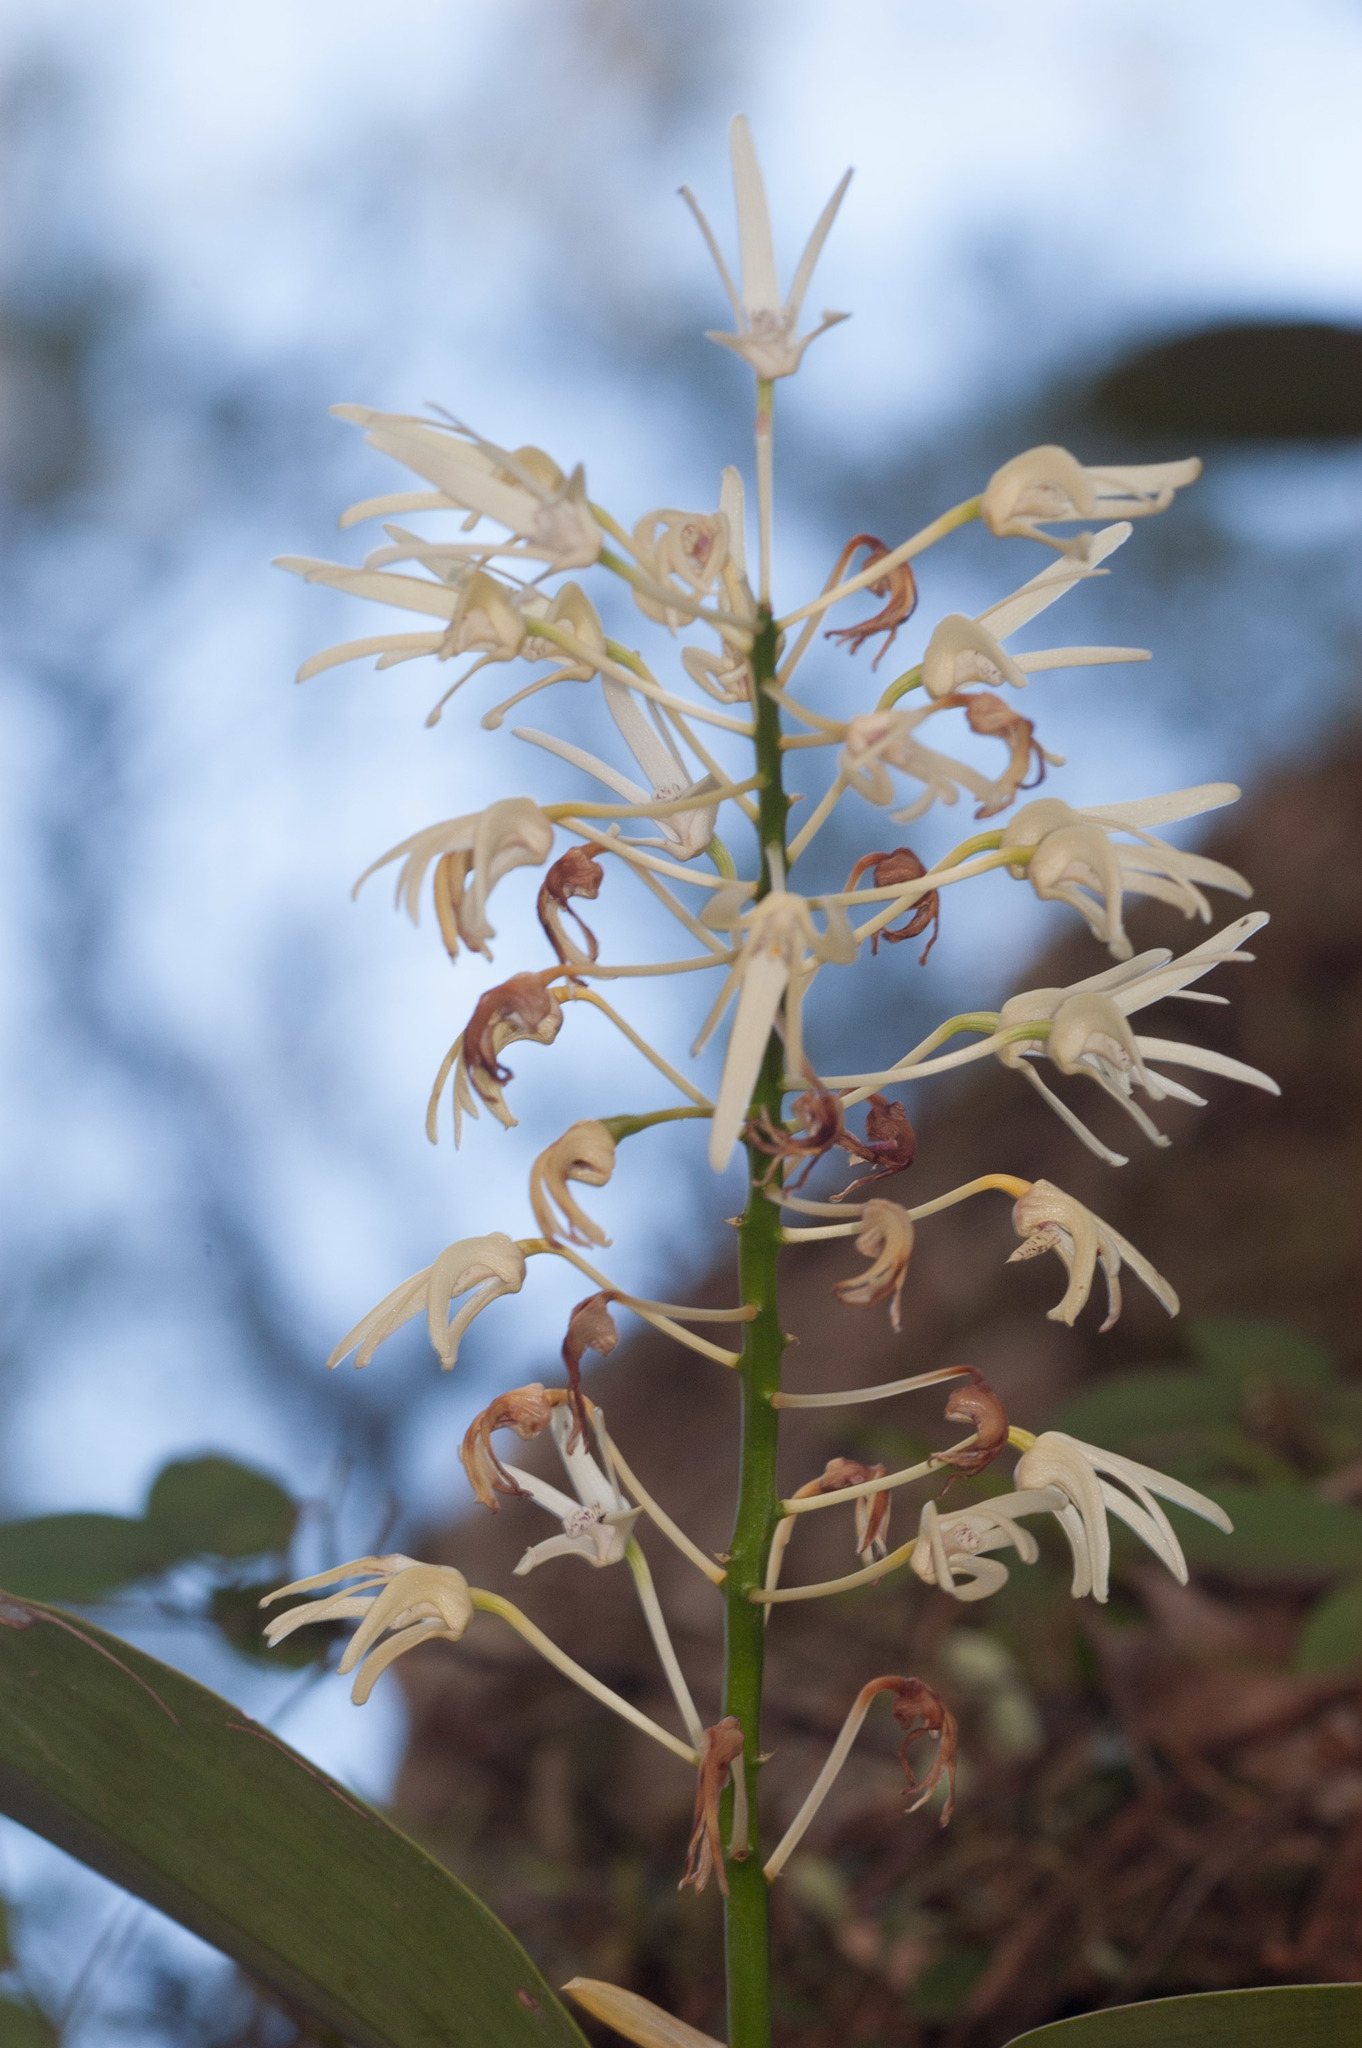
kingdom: Plantae
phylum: Tracheophyta
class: Liliopsida
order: Asparagales
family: Orchidaceae
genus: Dendrobium
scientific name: Dendrobium aemulum
